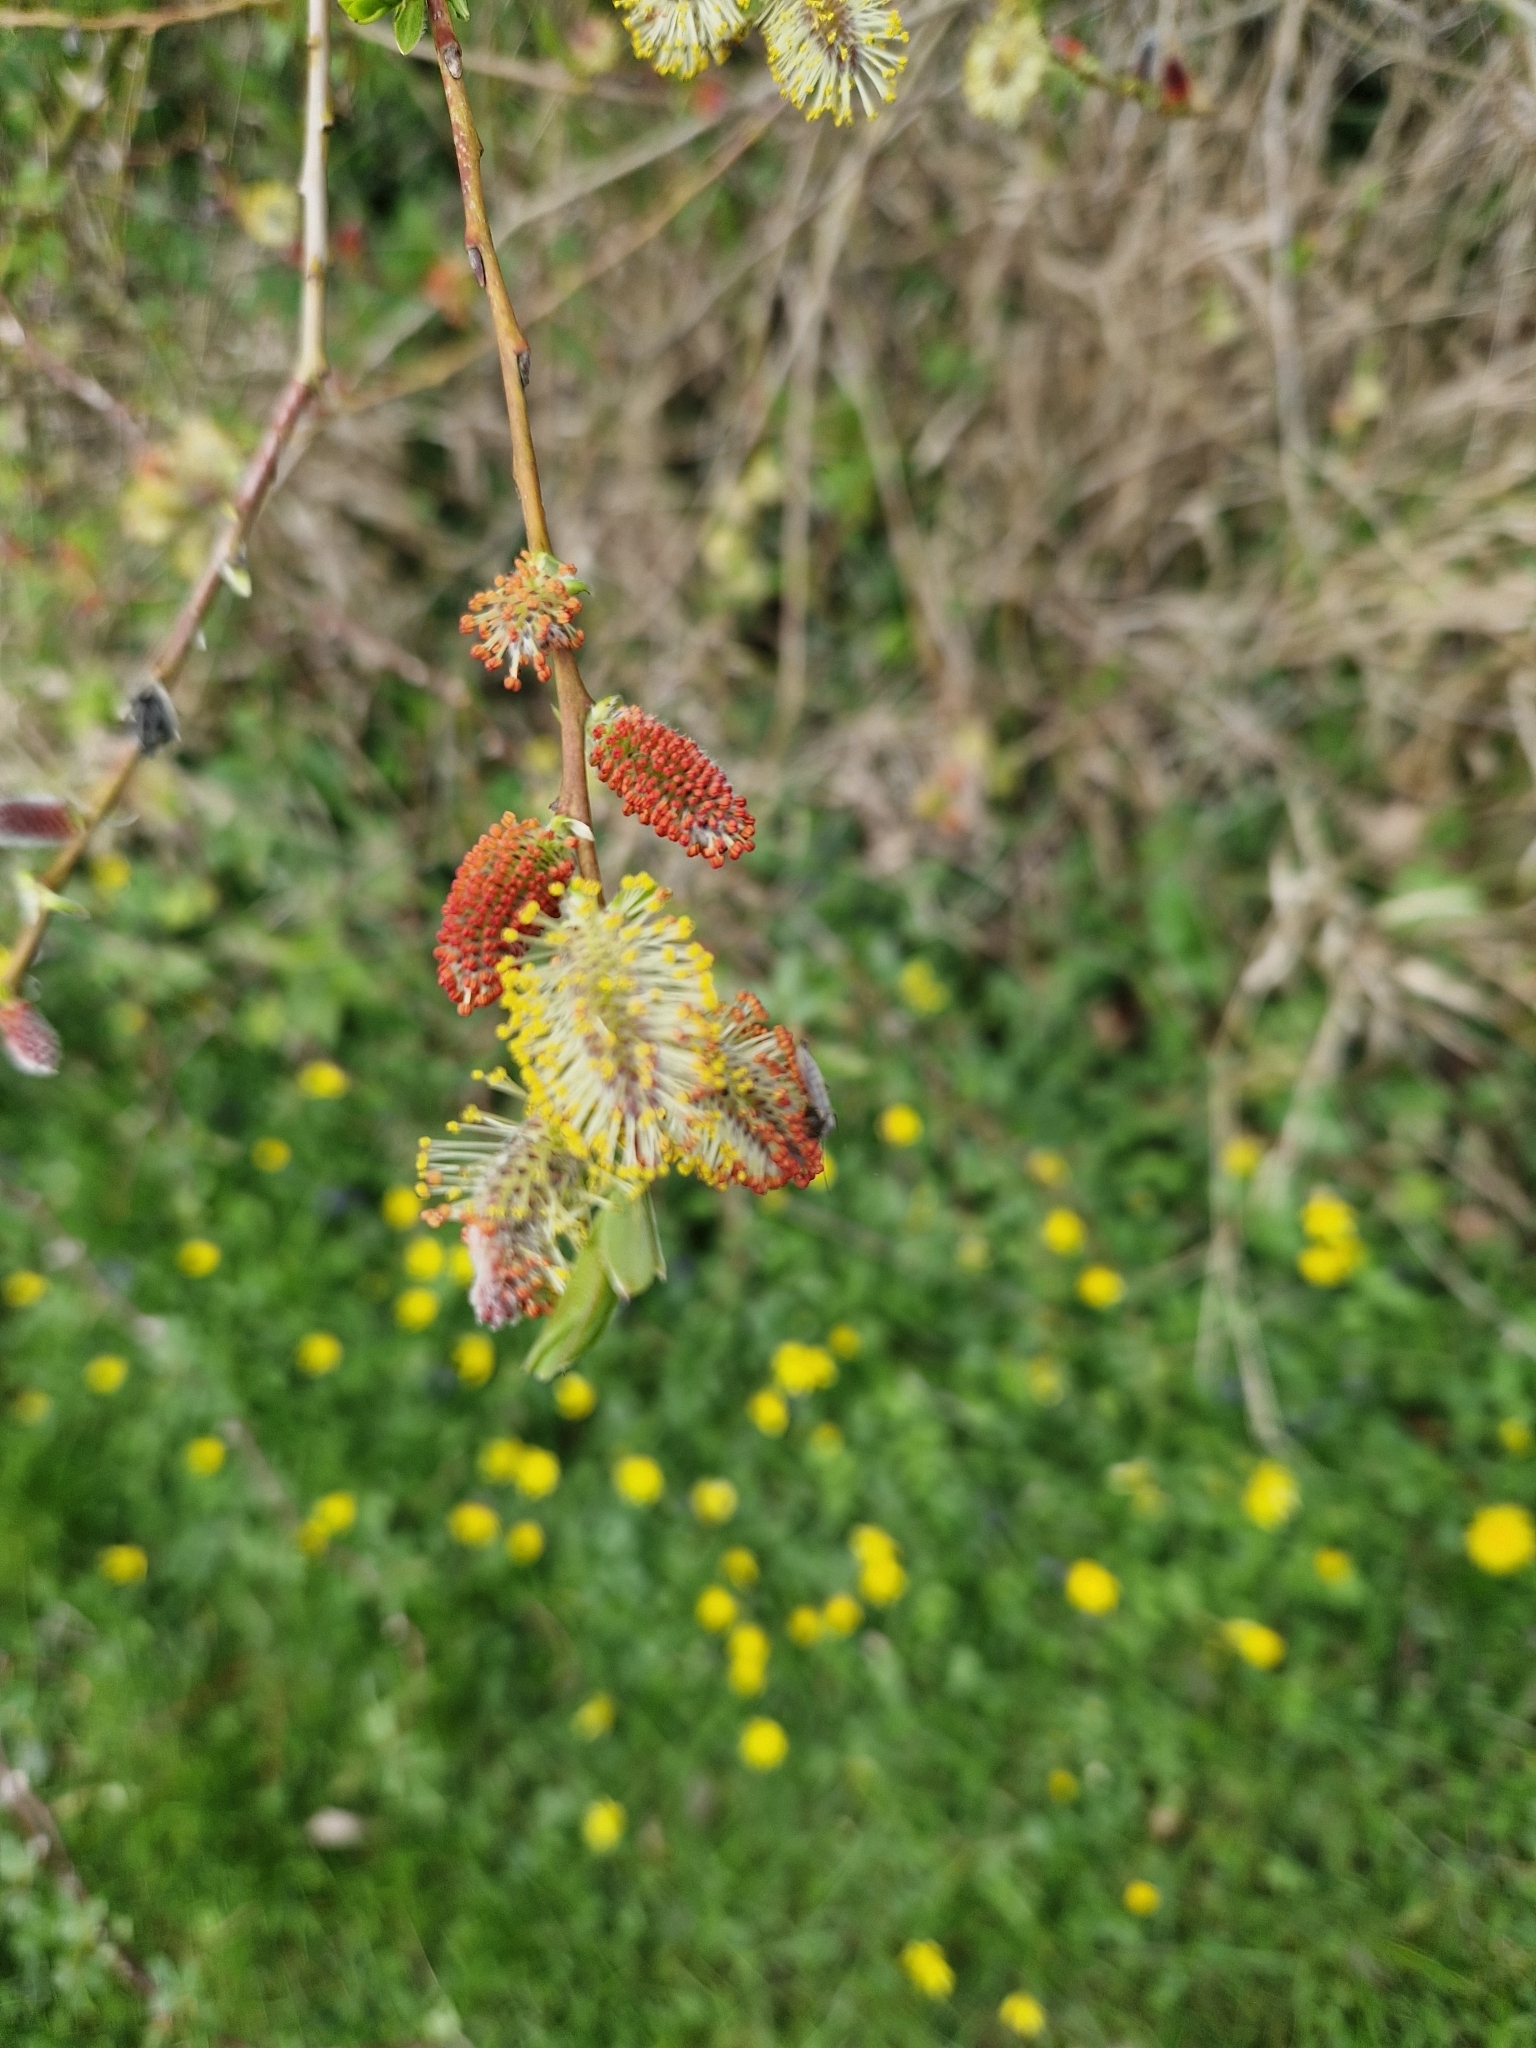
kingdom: Plantae
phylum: Tracheophyta
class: Magnoliopsida
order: Malpighiales
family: Salicaceae
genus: Salix
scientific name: Salix purpurea
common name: Purple willow
